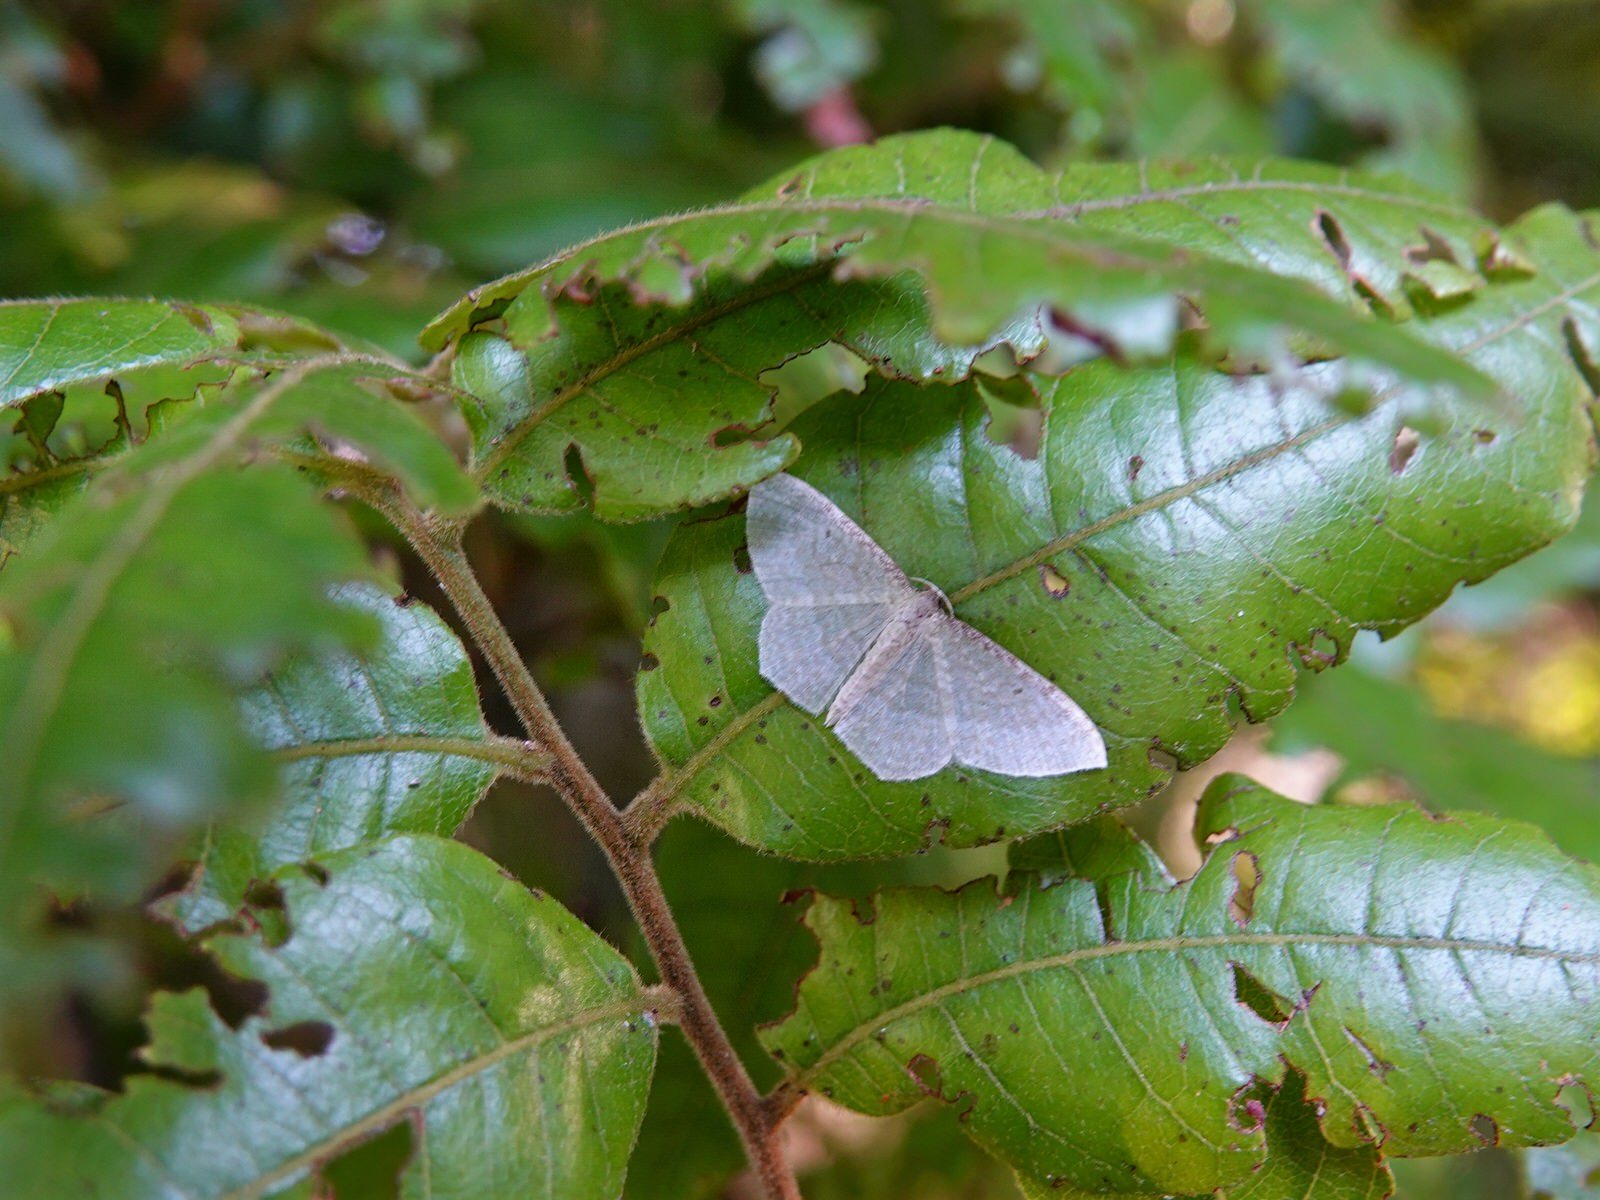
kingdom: Animalia
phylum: Arthropoda
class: Insecta
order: Lepidoptera
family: Geometridae
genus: Poecilasthena
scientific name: Poecilasthena pulchraria
